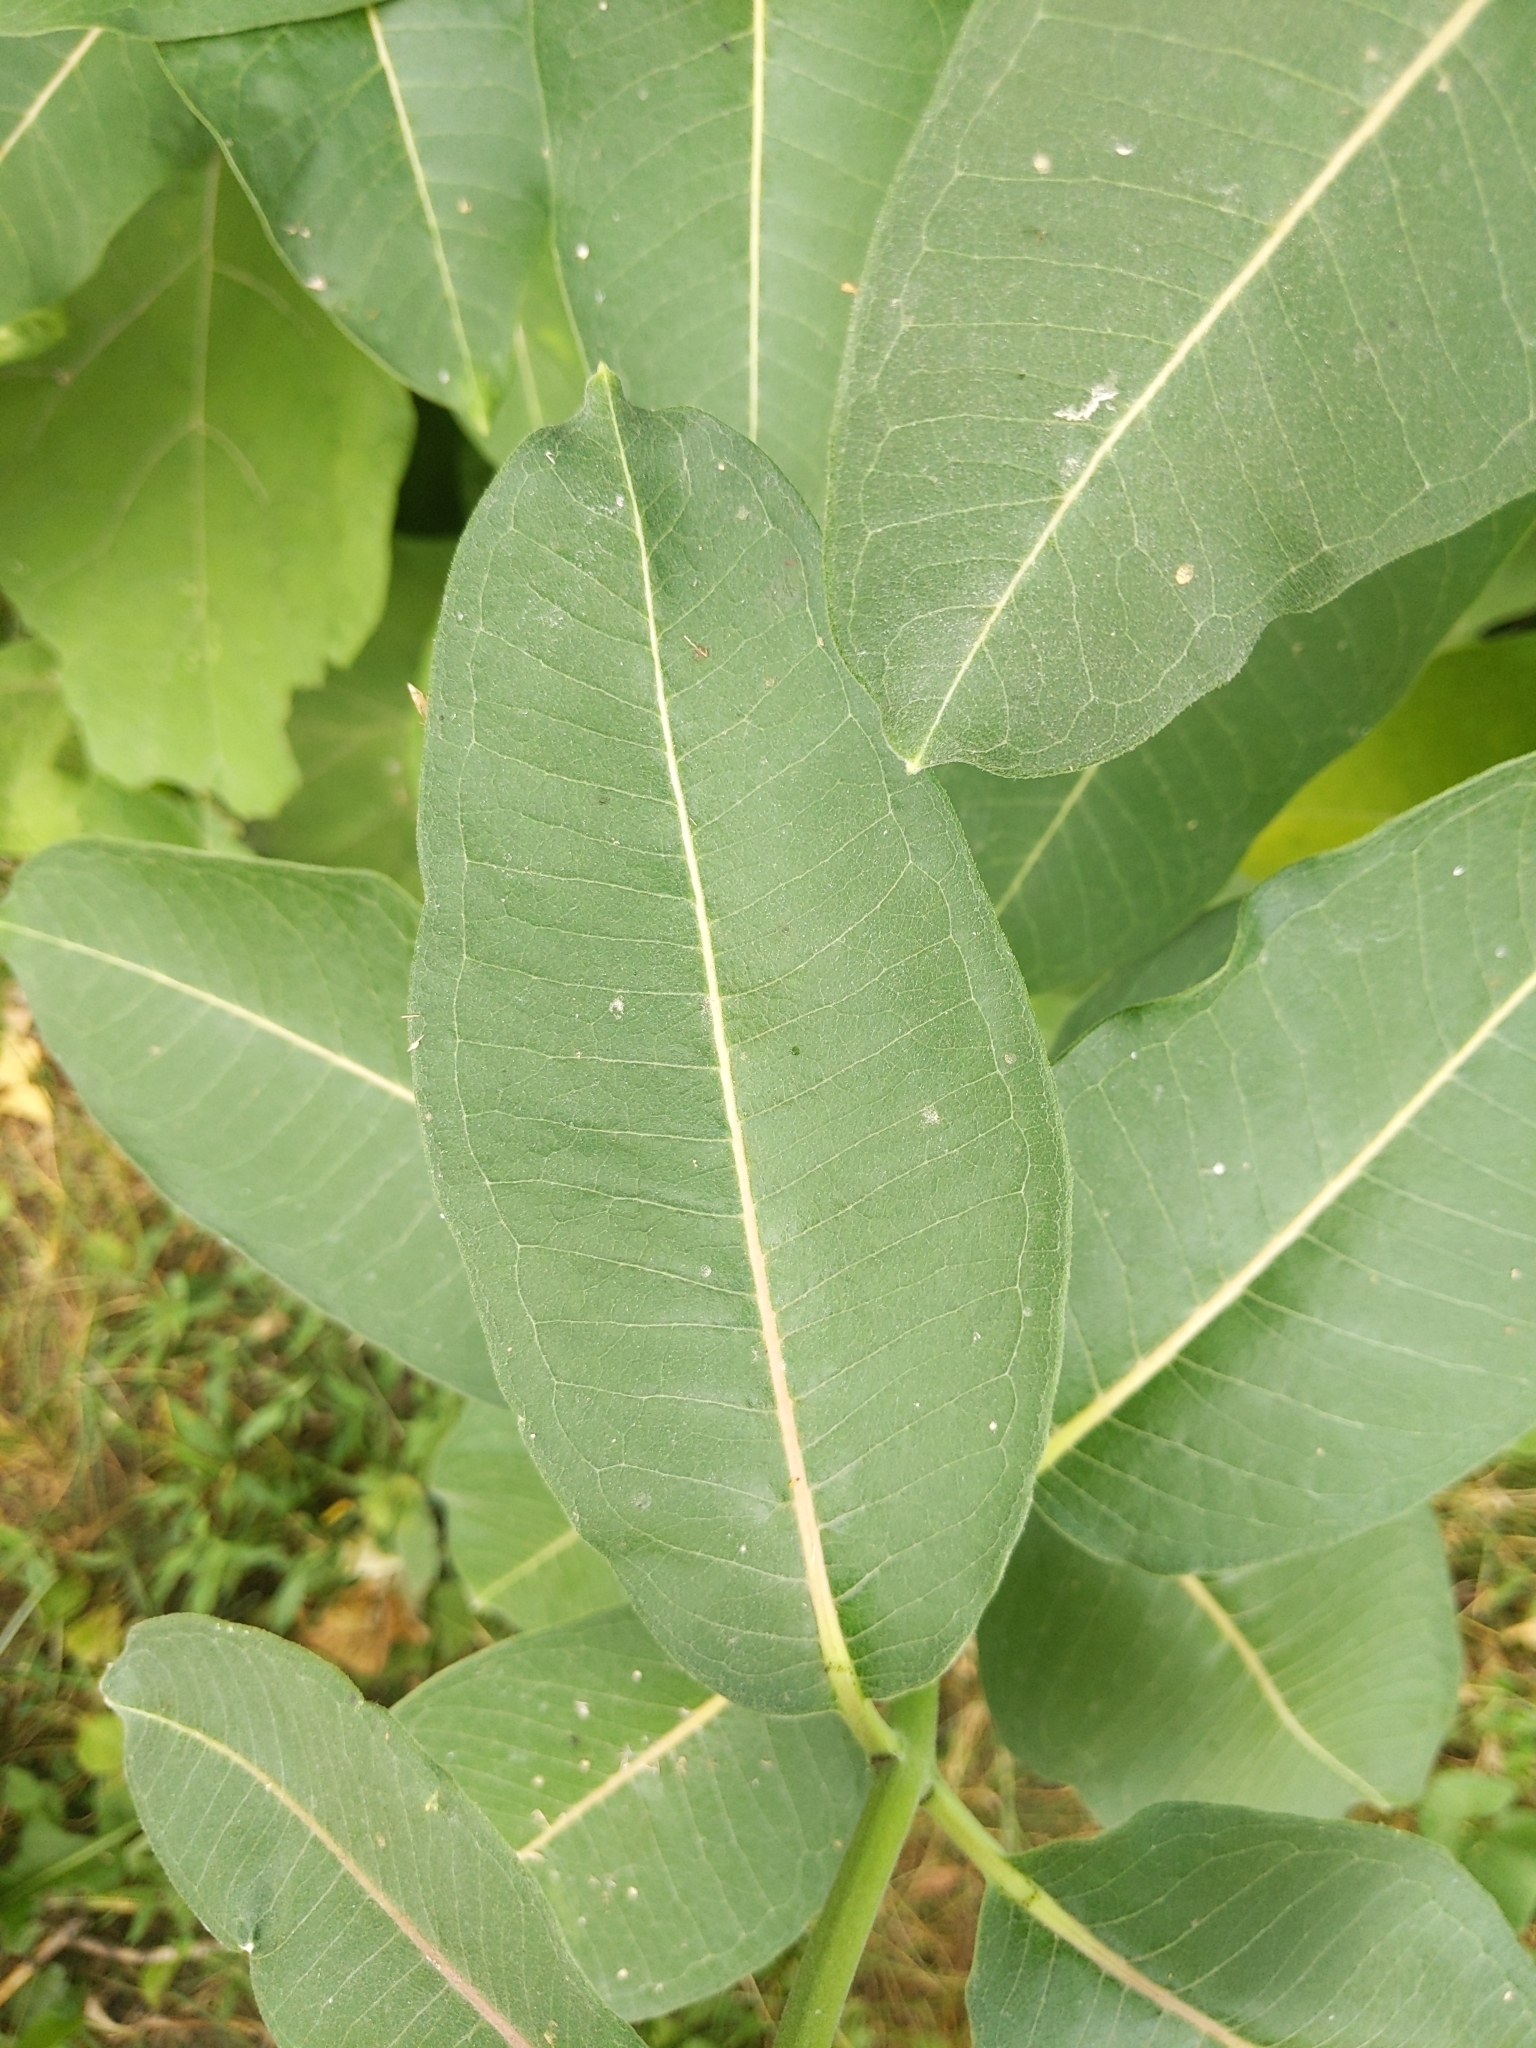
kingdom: Plantae
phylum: Tracheophyta
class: Magnoliopsida
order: Gentianales
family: Apocynaceae
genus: Asclepias
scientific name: Asclepias syriaca
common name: Common milkweed
